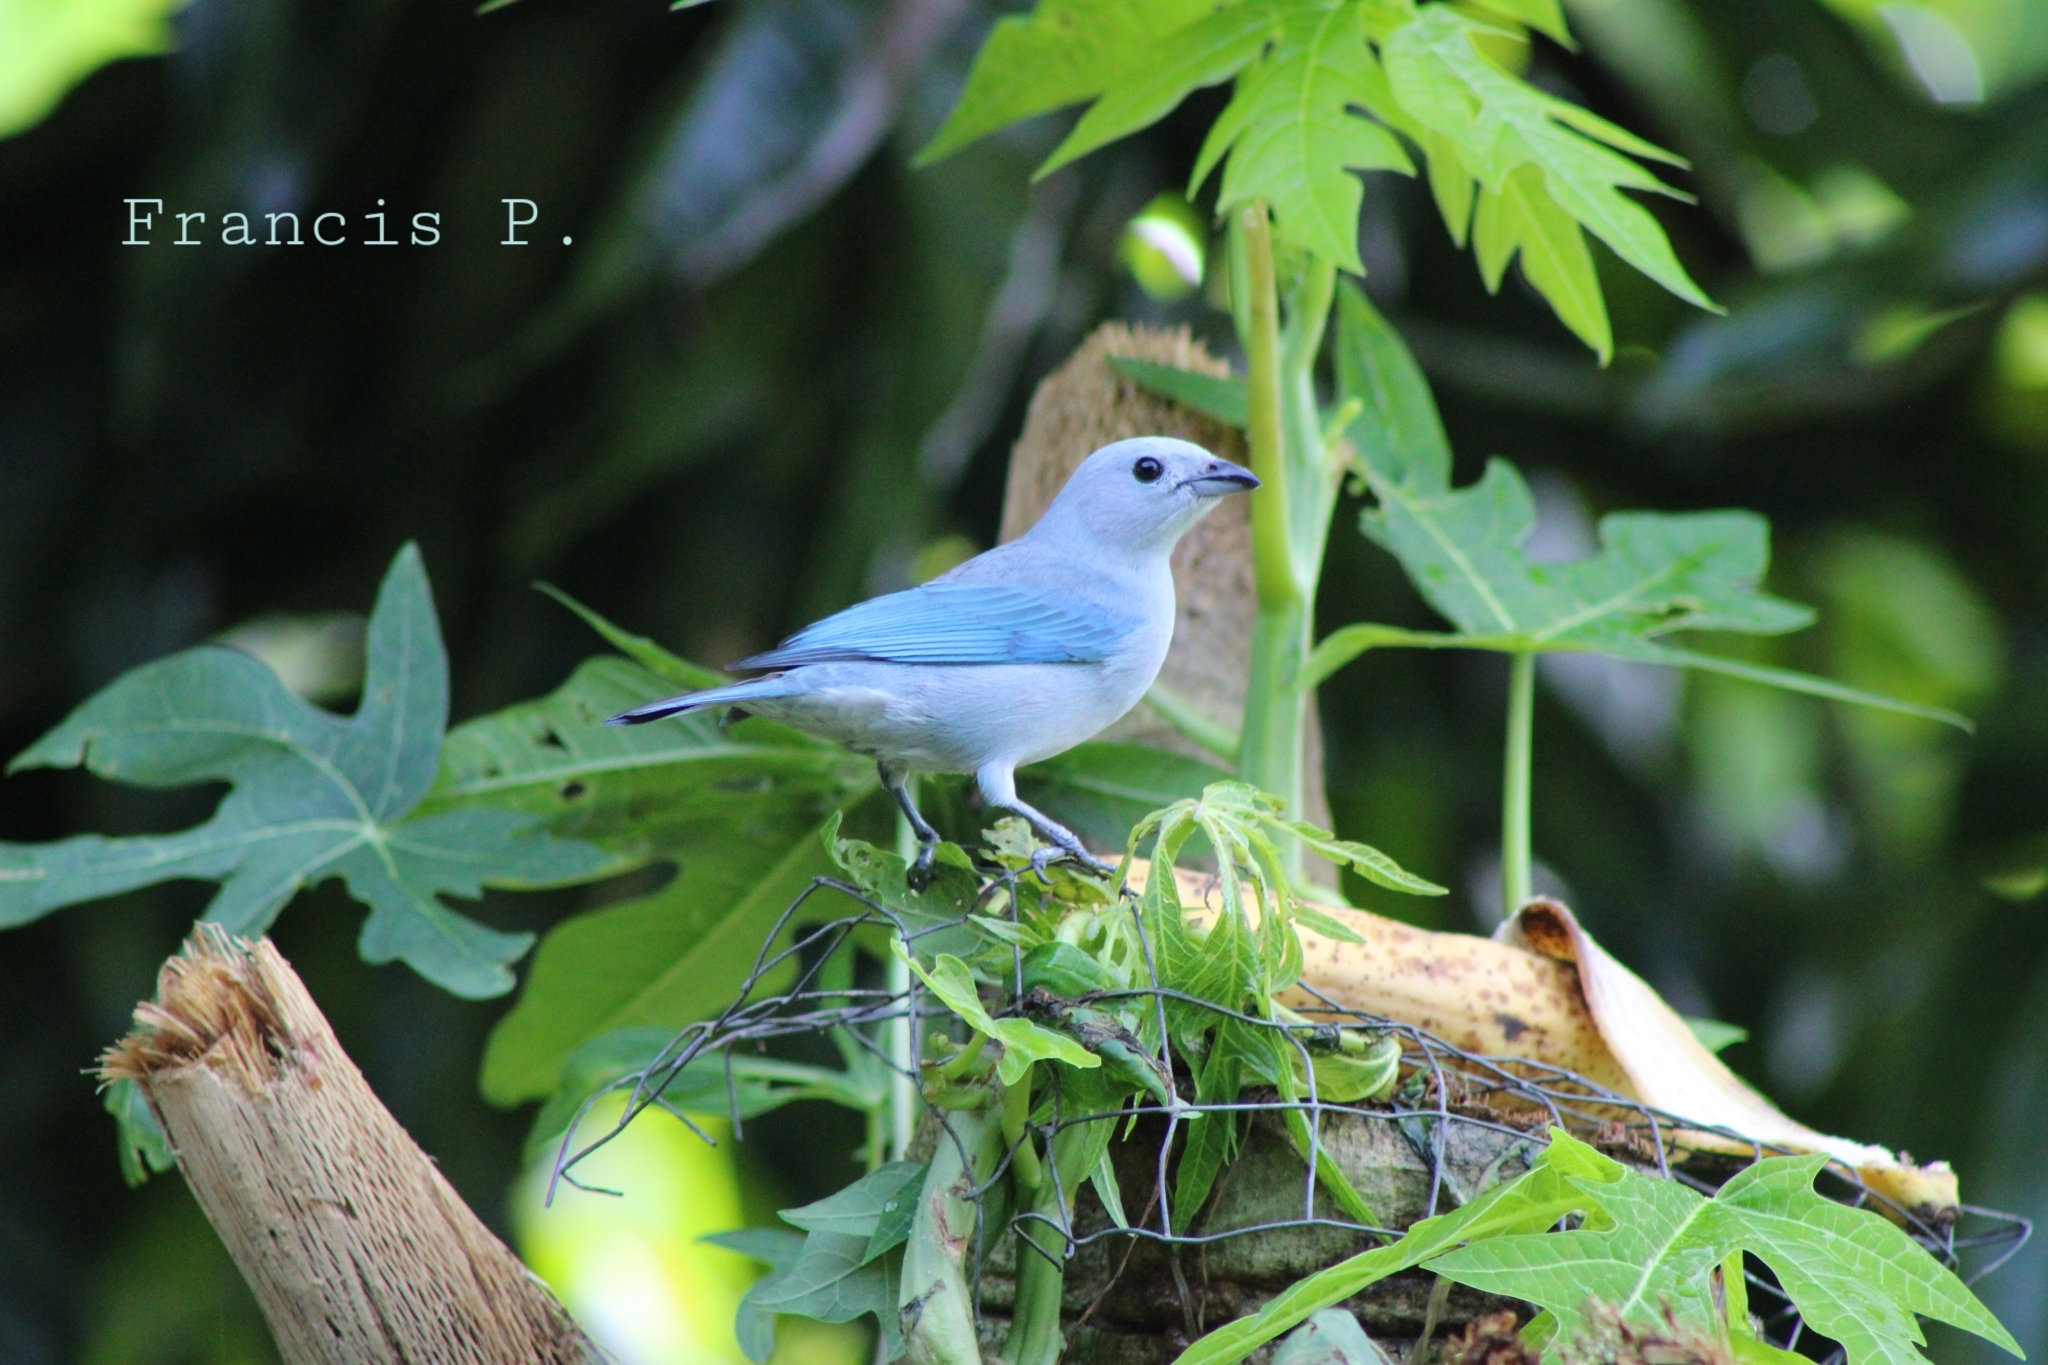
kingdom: Animalia
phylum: Chordata
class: Aves
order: Passeriformes
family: Thraupidae
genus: Thraupis
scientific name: Thraupis episcopus
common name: Blue-grey tanager
